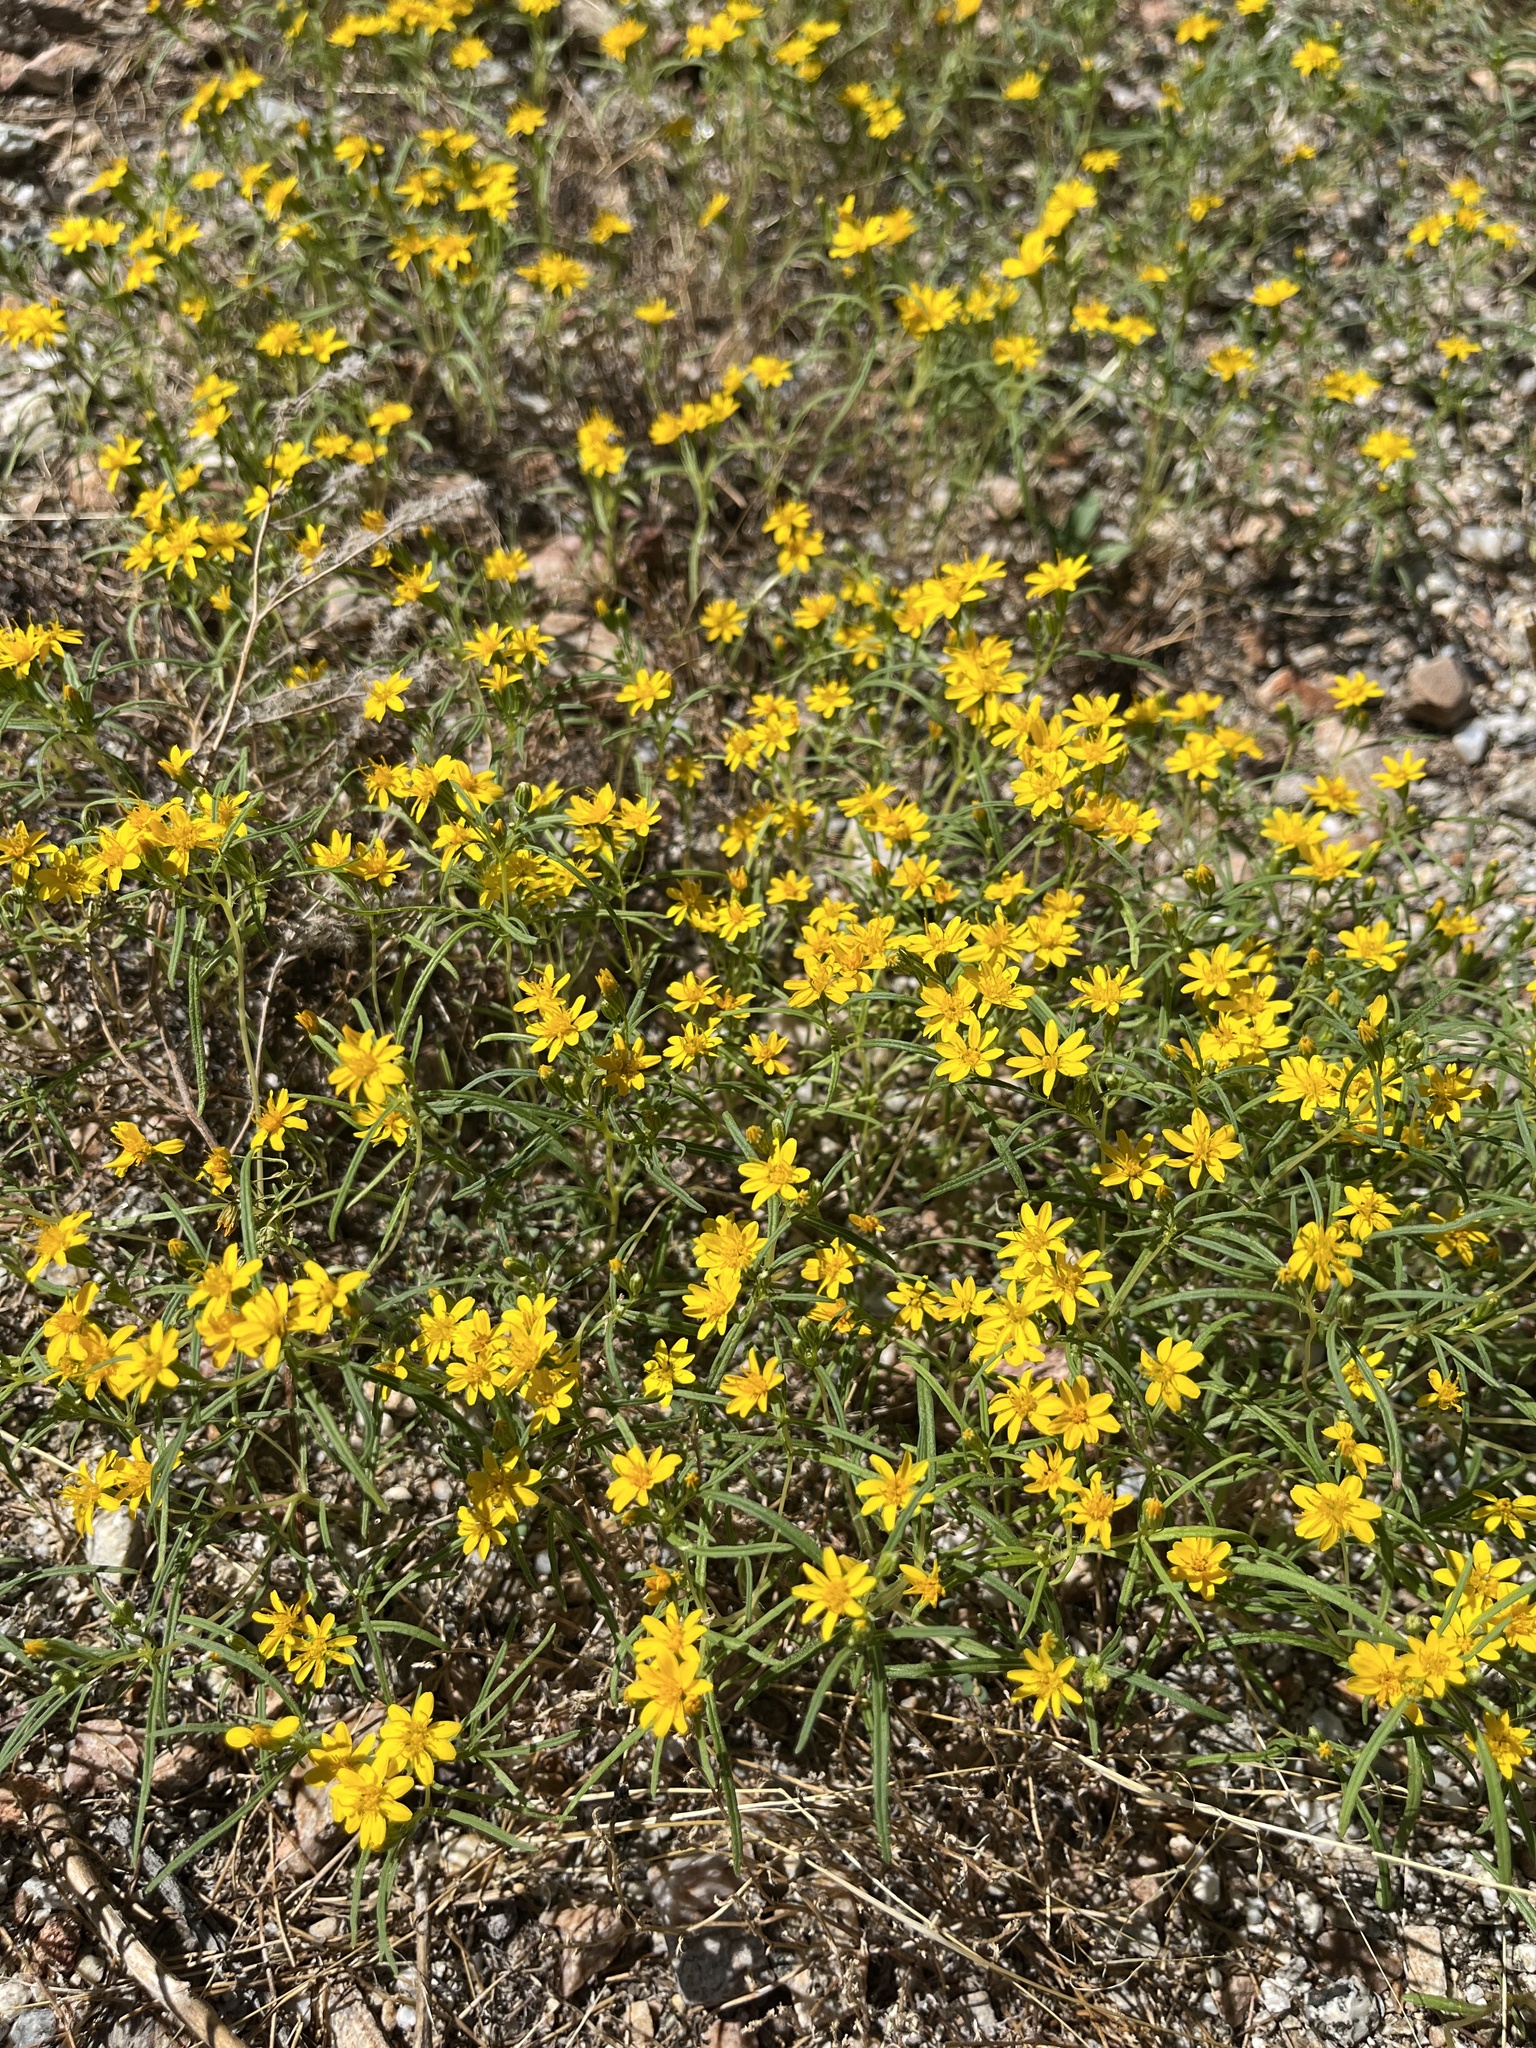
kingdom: Plantae
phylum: Tracheophyta
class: Magnoliopsida
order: Asterales
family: Asteraceae
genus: Pectis
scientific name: Pectis papposa
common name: Many-bristle chinchweed
